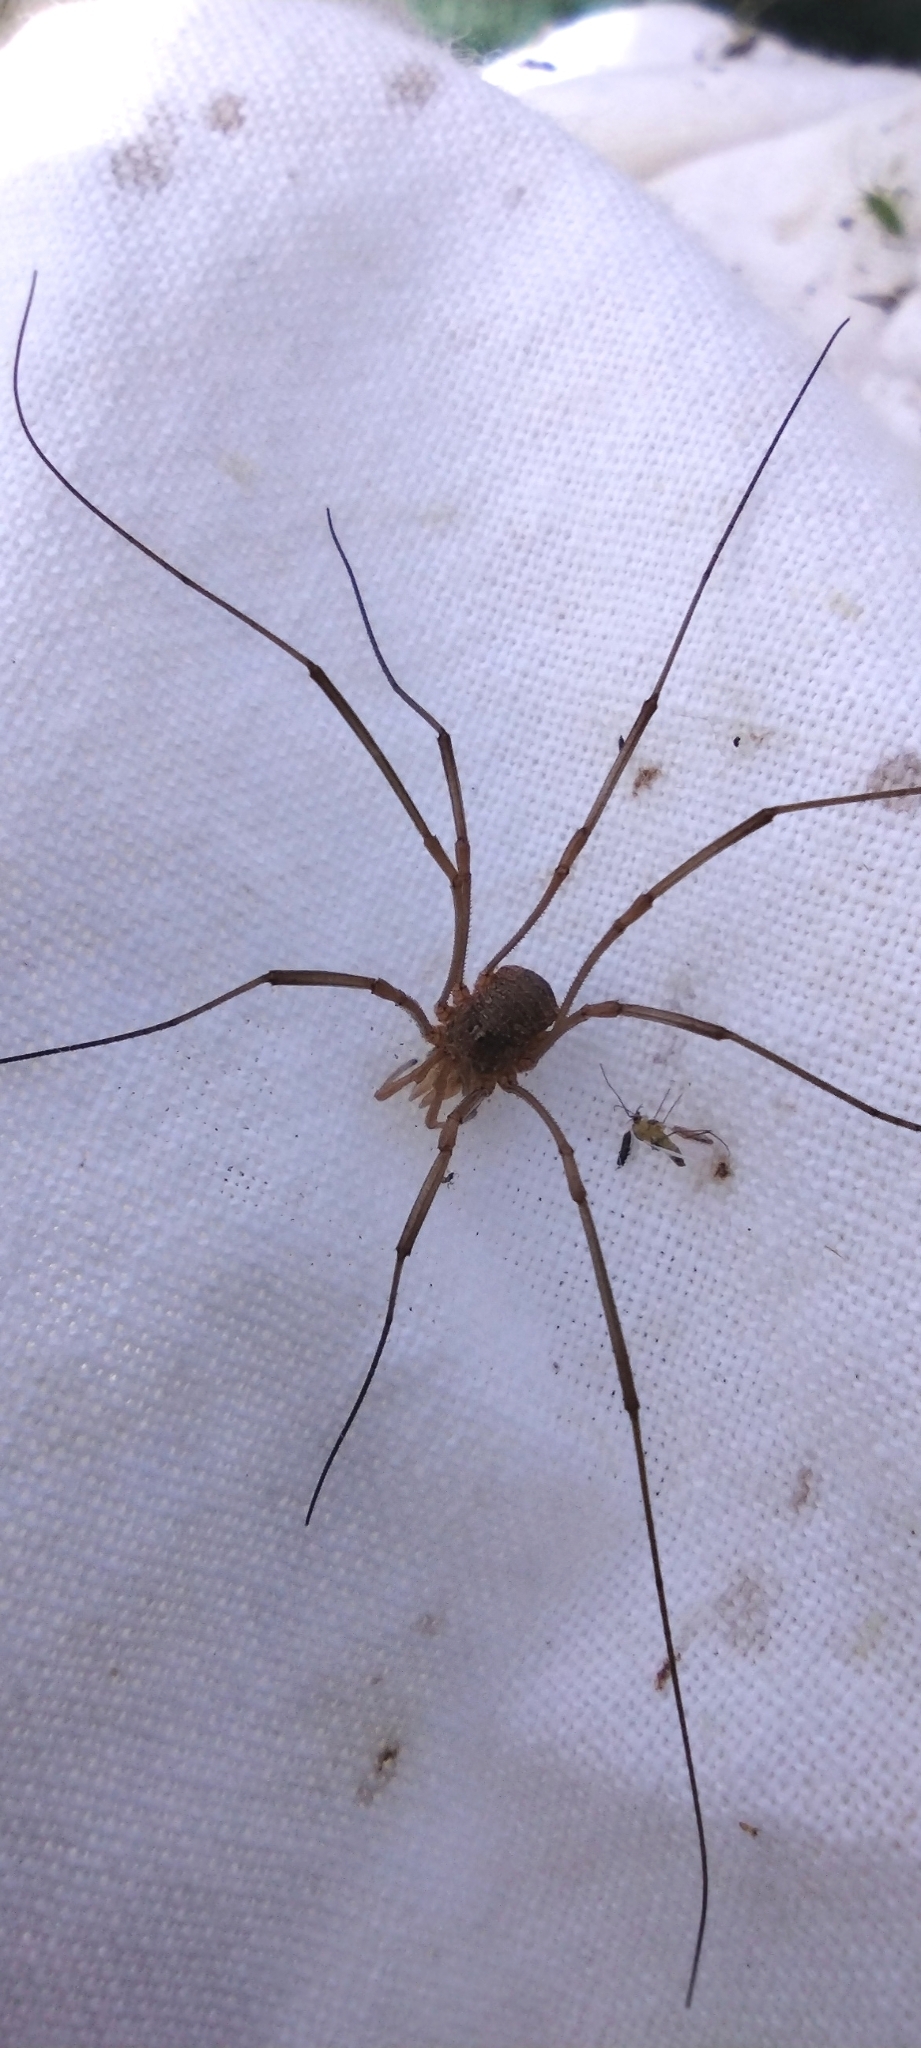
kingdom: Animalia
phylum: Arthropoda
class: Arachnida
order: Opiliones
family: Phalangiidae
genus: Phalangium
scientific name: Phalangium opilio
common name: Daddy longleg
